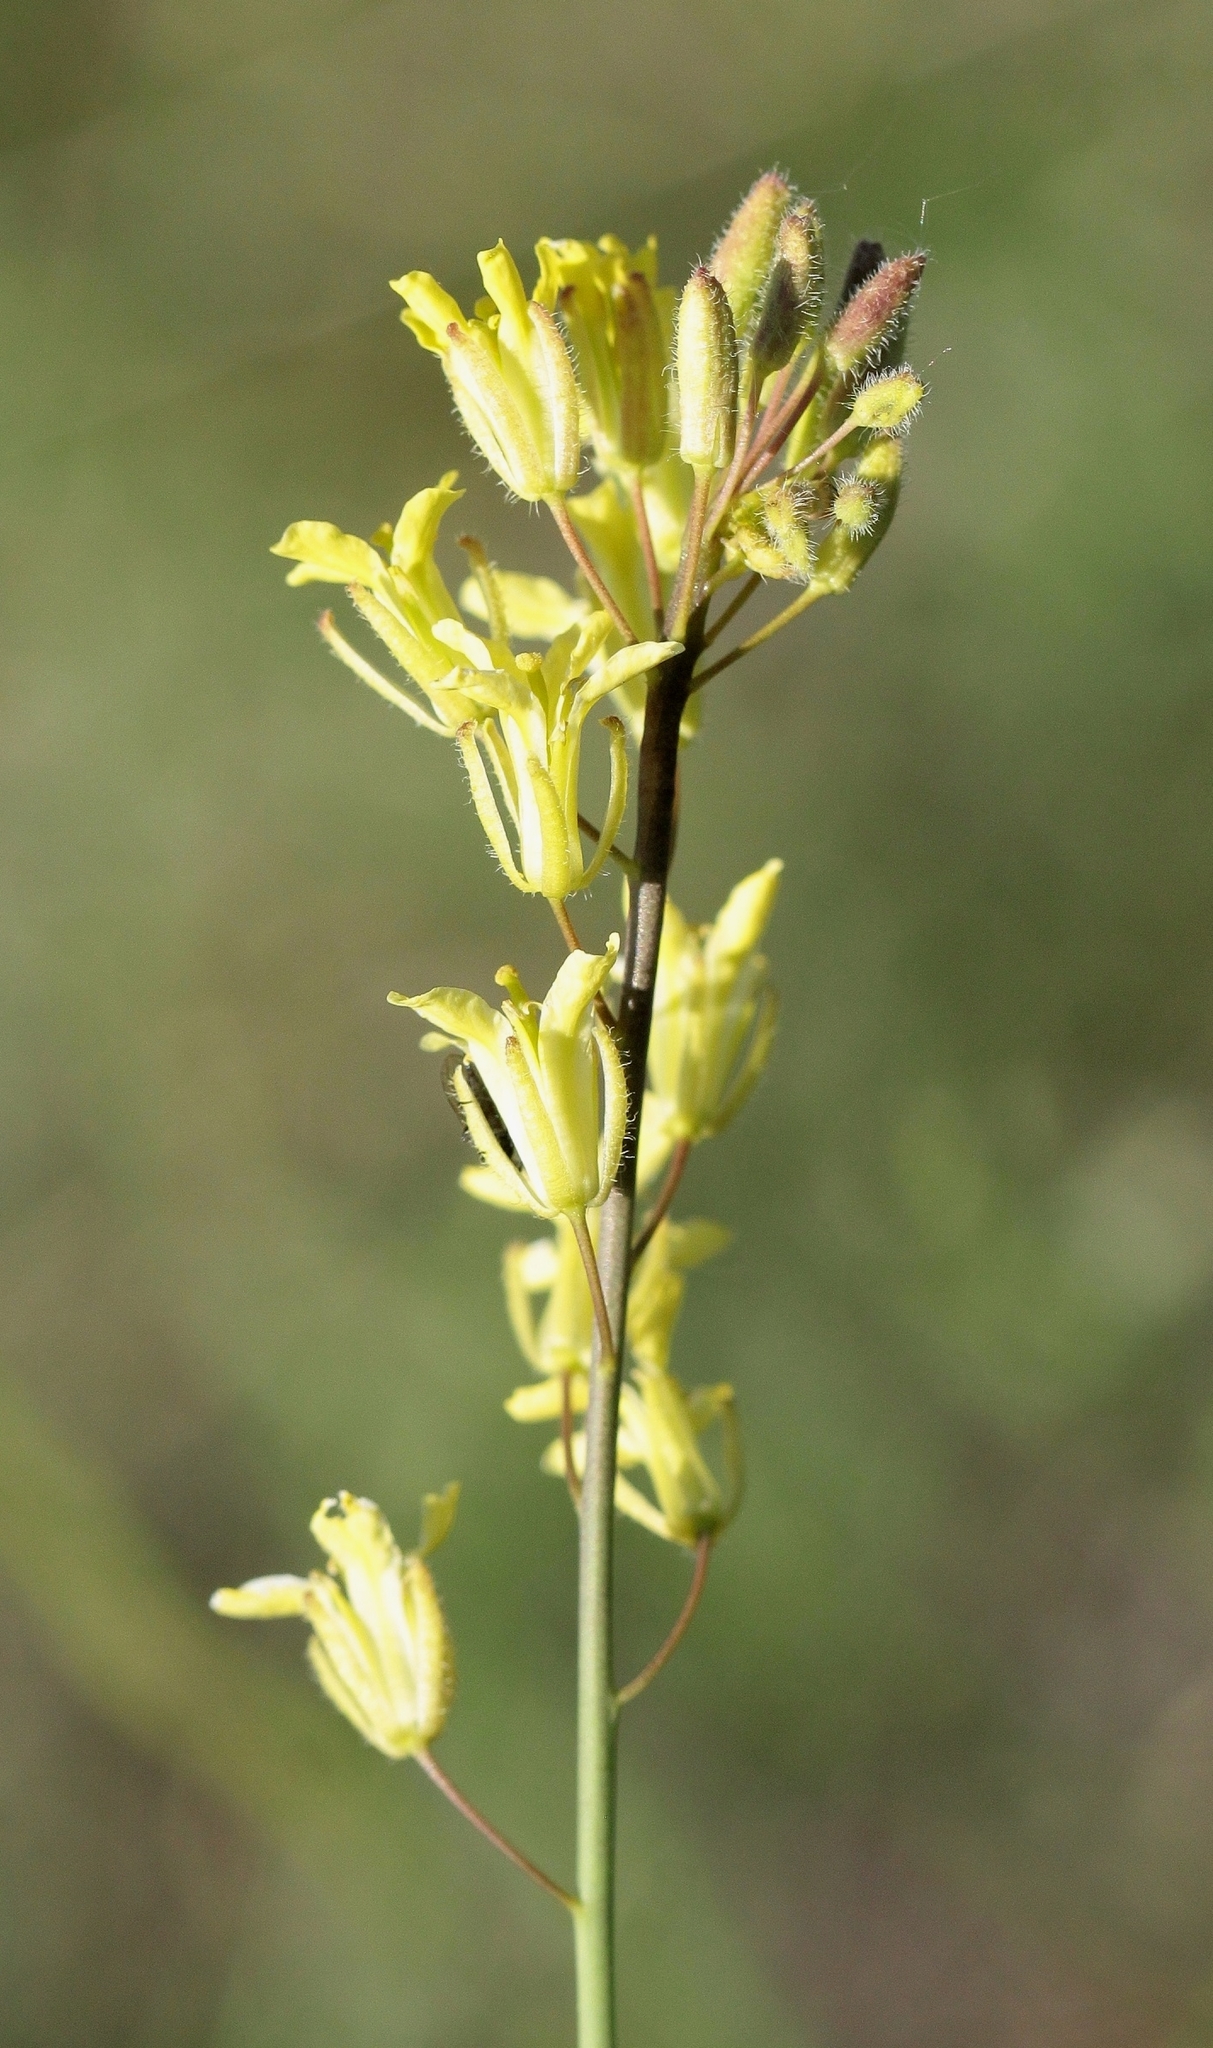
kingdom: Plantae
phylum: Tracheophyta
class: Magnoliopsida
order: Brassicales
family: Brassicaceae
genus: Sisymbrium
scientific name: Sisymbrium polymorphum
